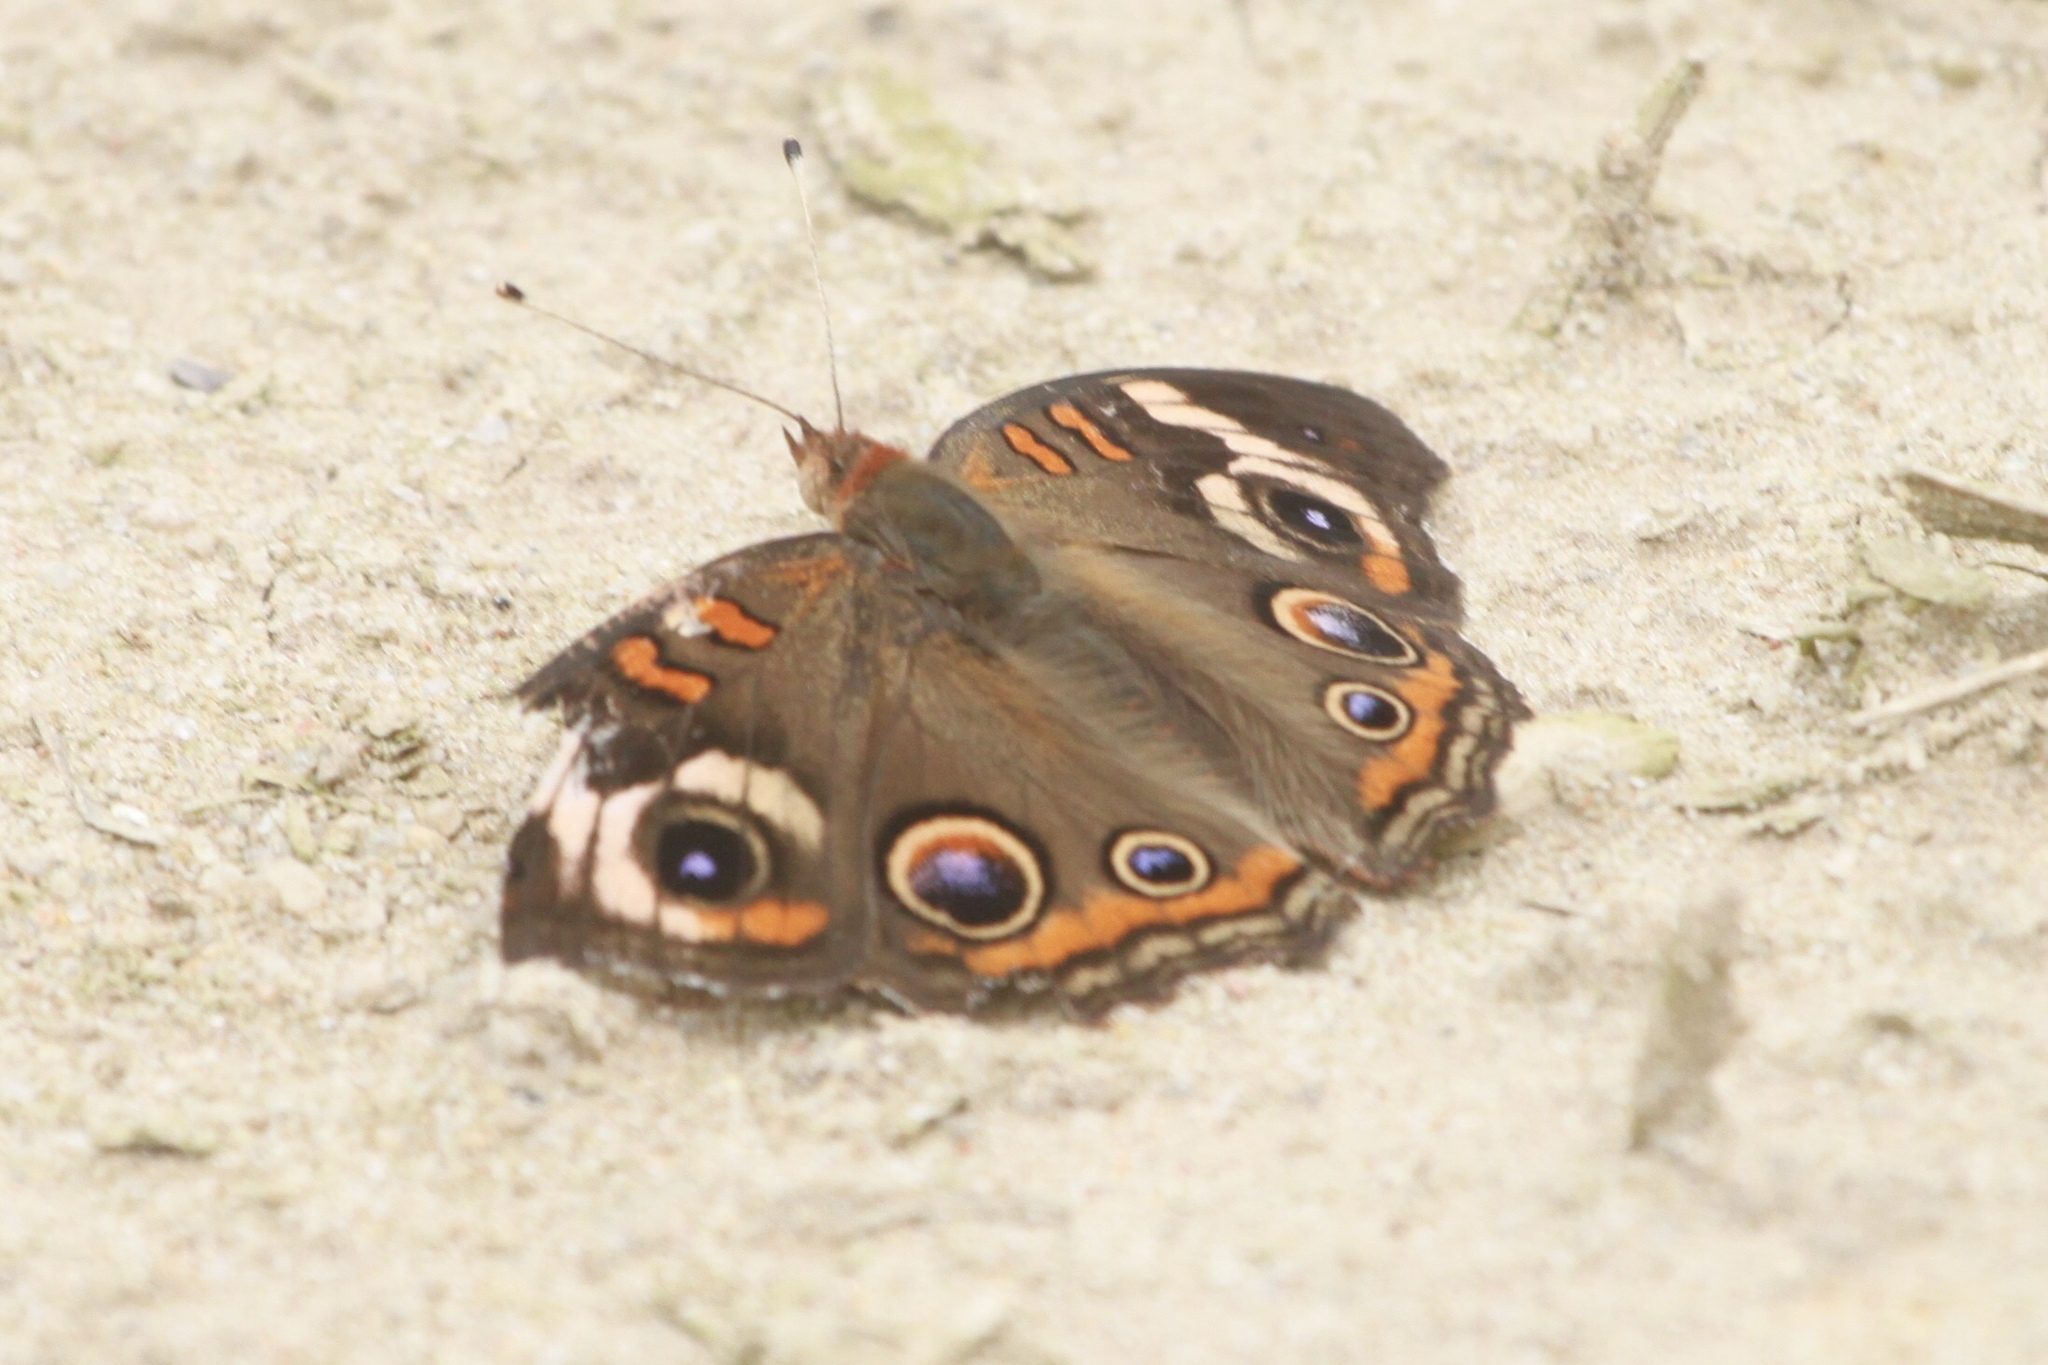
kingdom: Animalia
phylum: Arthropoda
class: Insecta
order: Lepidoptera
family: Nymphalidae
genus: Junonia
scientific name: Junonia coenia
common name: Common buckeye
